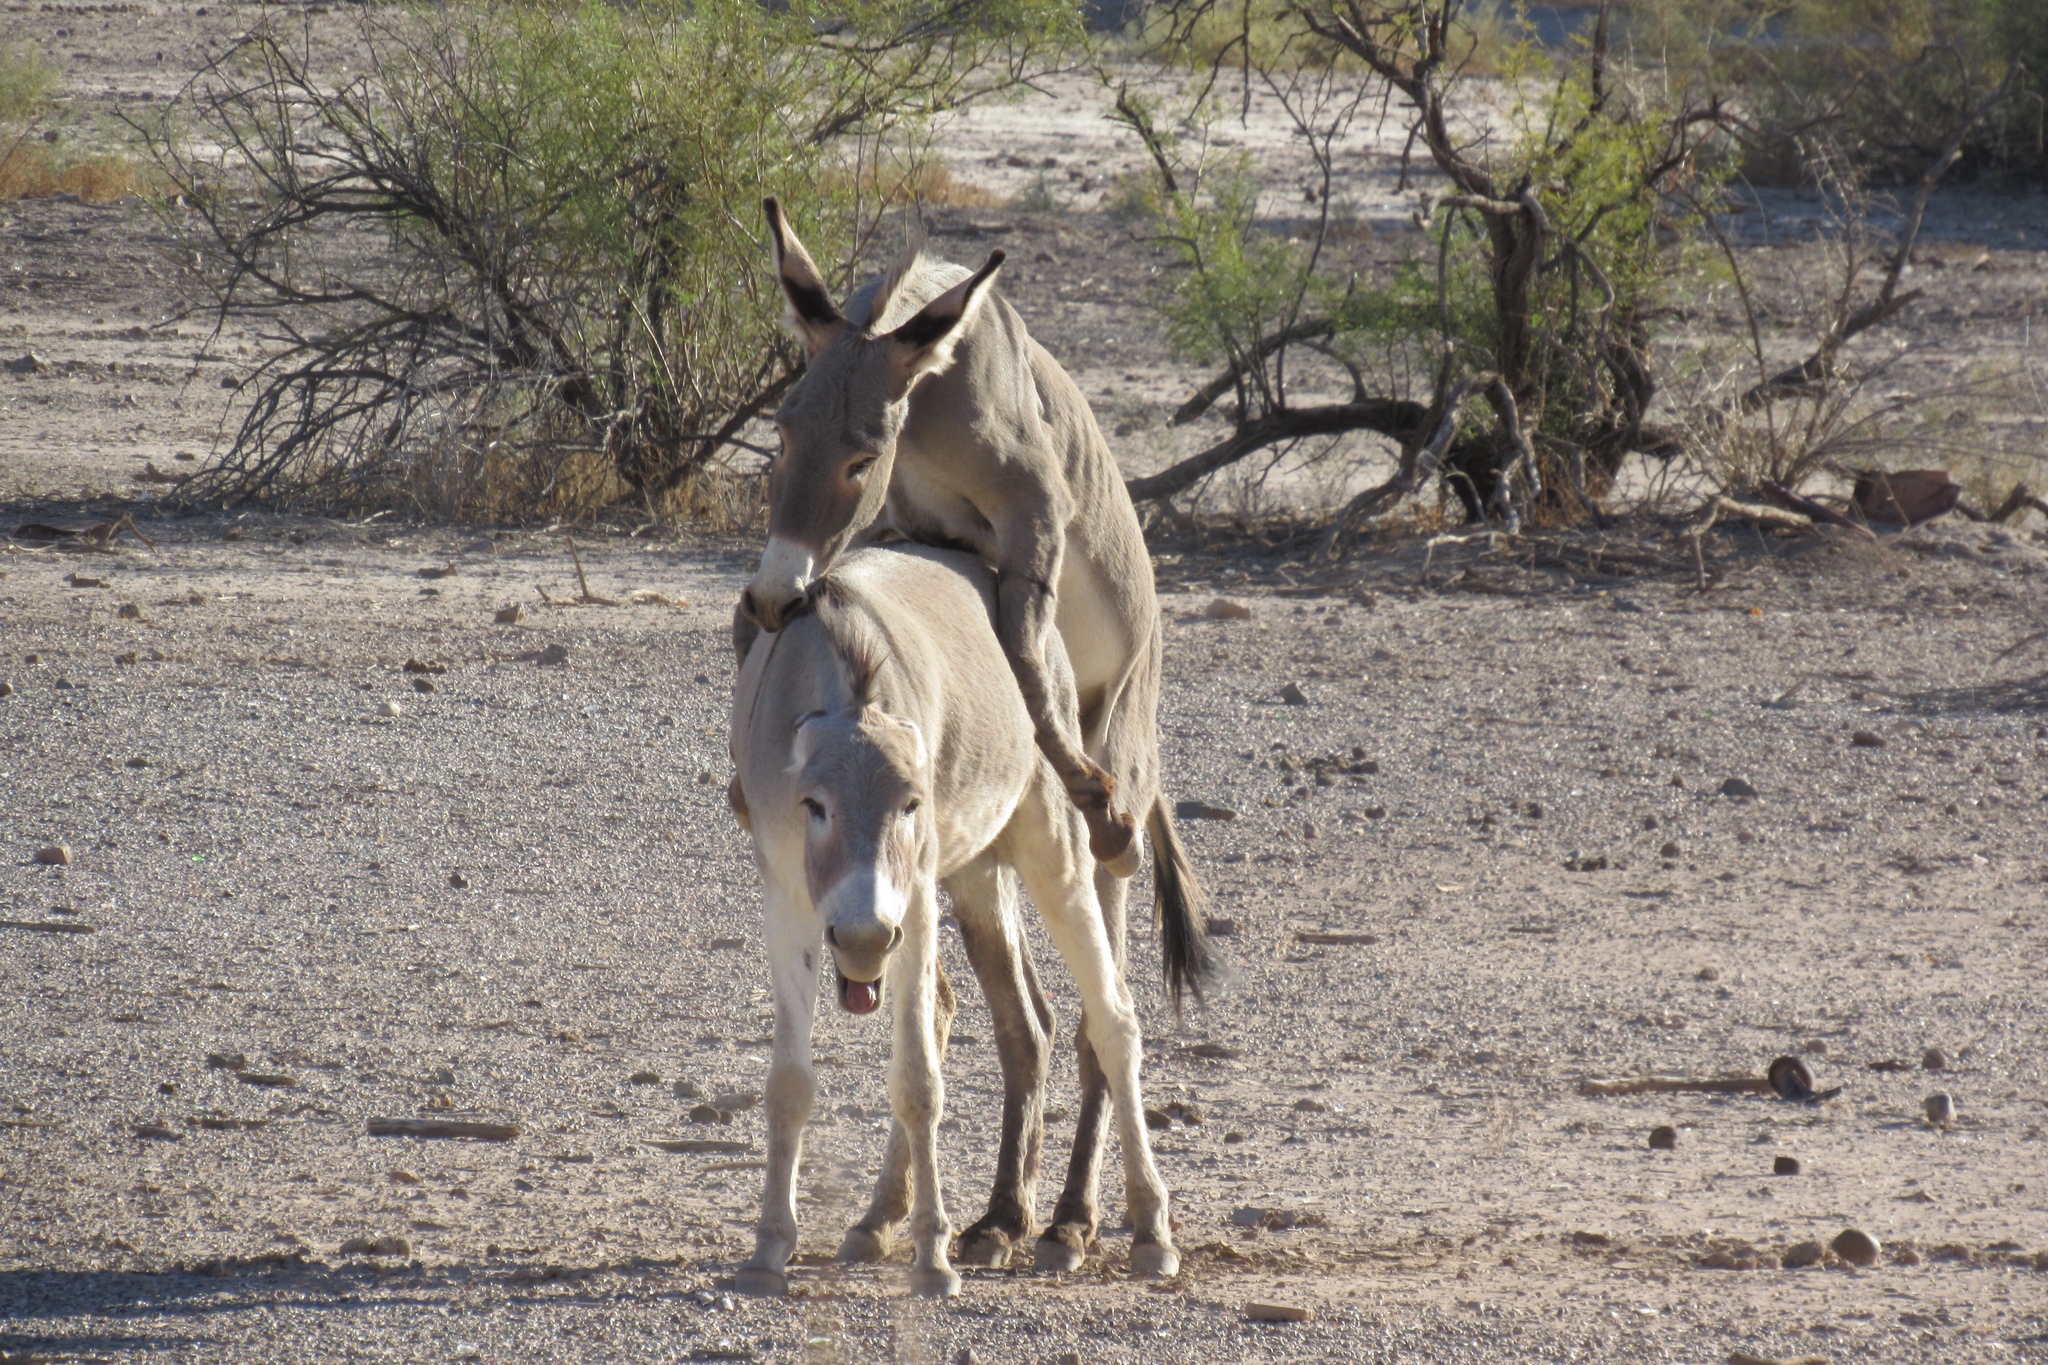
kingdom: Animalia
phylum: Chordata
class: Mammalia
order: Perissodactyla
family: Equidae
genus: Equus
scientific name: Equus asinus
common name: Ass
